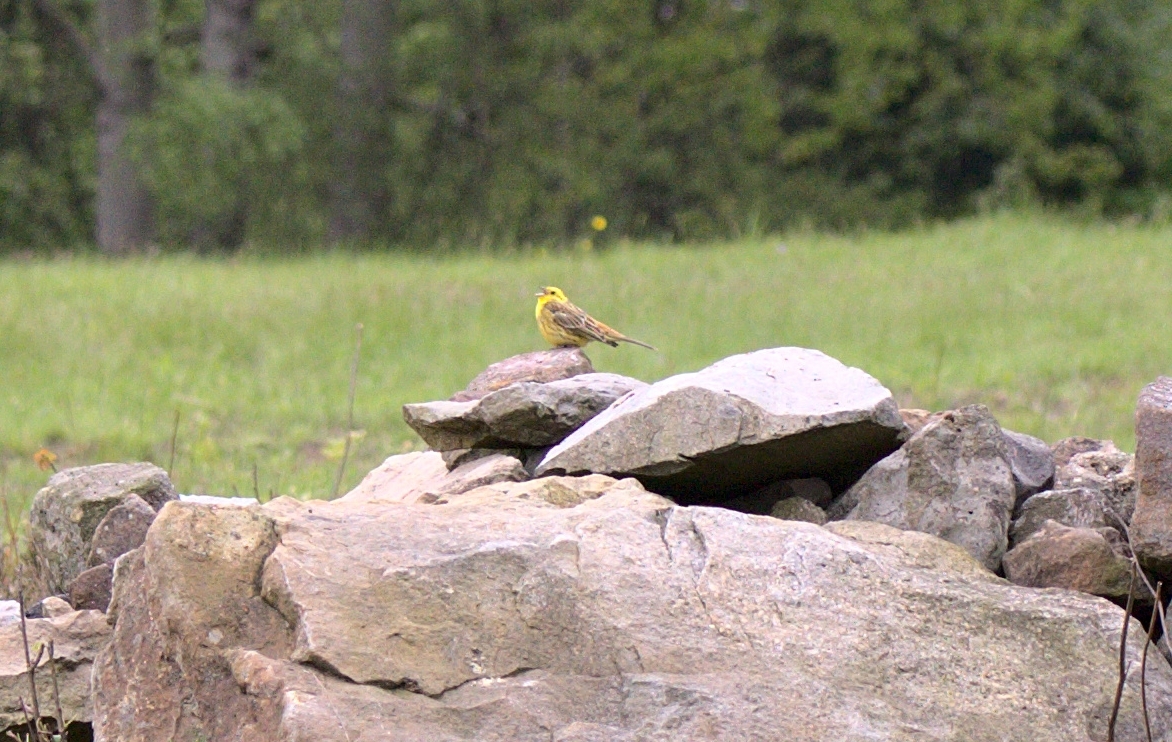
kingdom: Animalia
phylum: Chordata
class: Aves
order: Passeriformes
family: Emberizidae
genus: Emberiza
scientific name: Emberiza citrinella
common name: Yellowhammer
